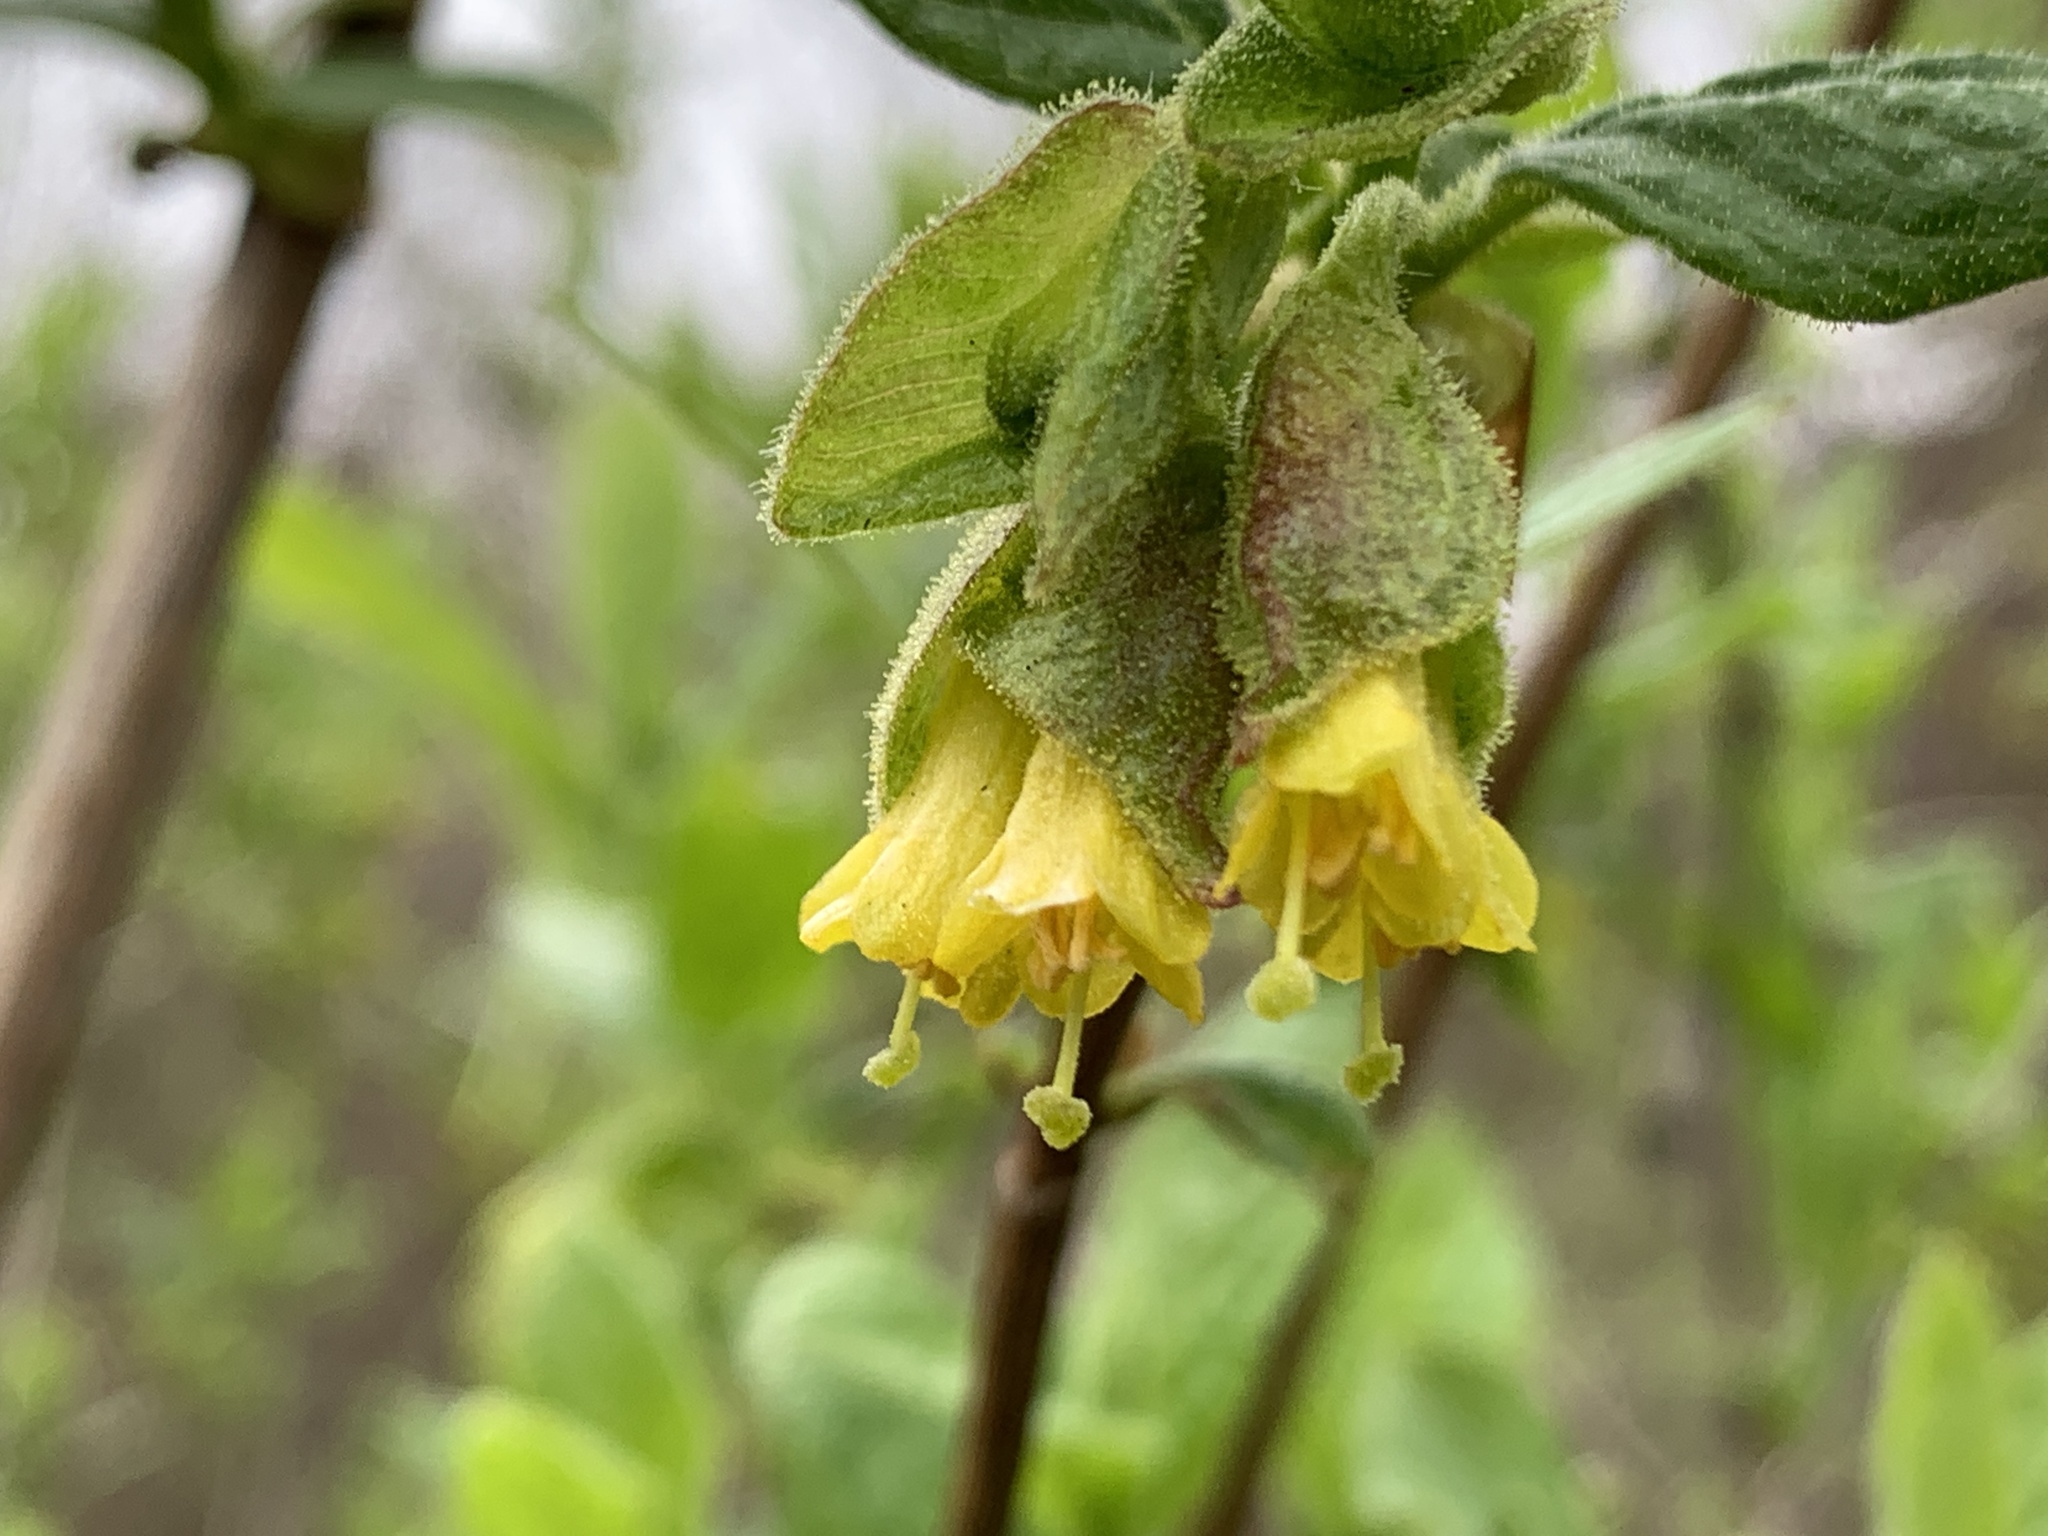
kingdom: Plantae
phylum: Tracheophyta
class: Magnoliopsida
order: Dipsacales
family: Caprifoliaceae
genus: Lonicera
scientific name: Lonicera involucrata
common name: Californian honeysuckle
